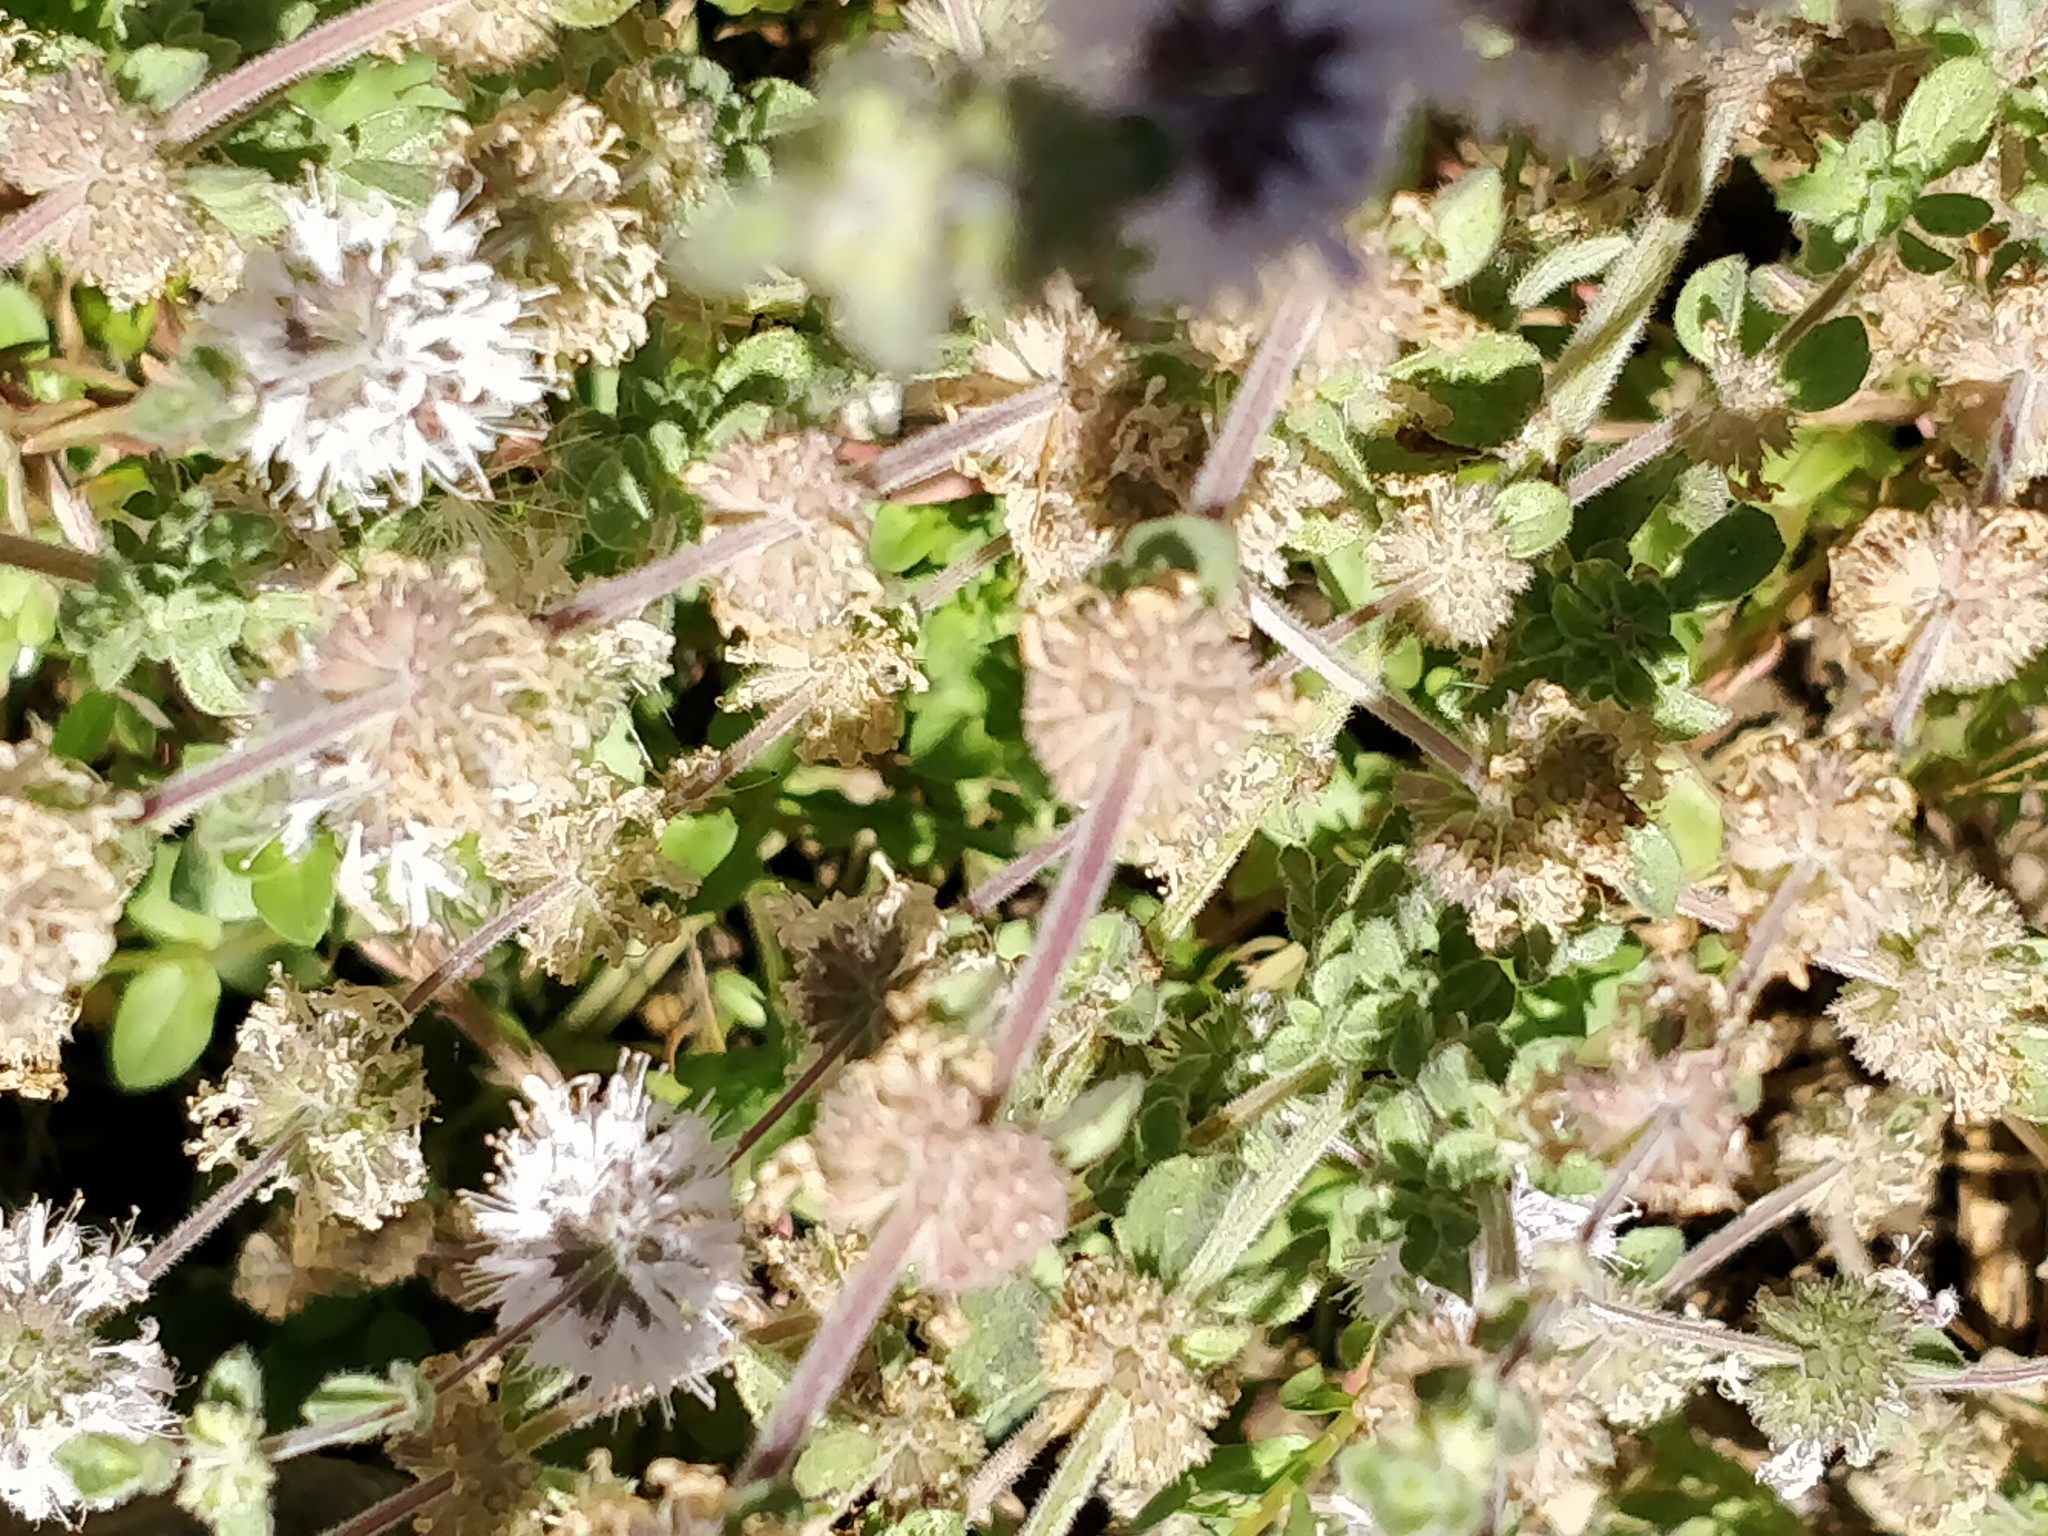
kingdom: Plantae
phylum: Tracheophyta
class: Magnoliopsida
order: Lamiales
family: Lamiaceae
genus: Mentha
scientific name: Mentha pulegium
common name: Pennyroyal
